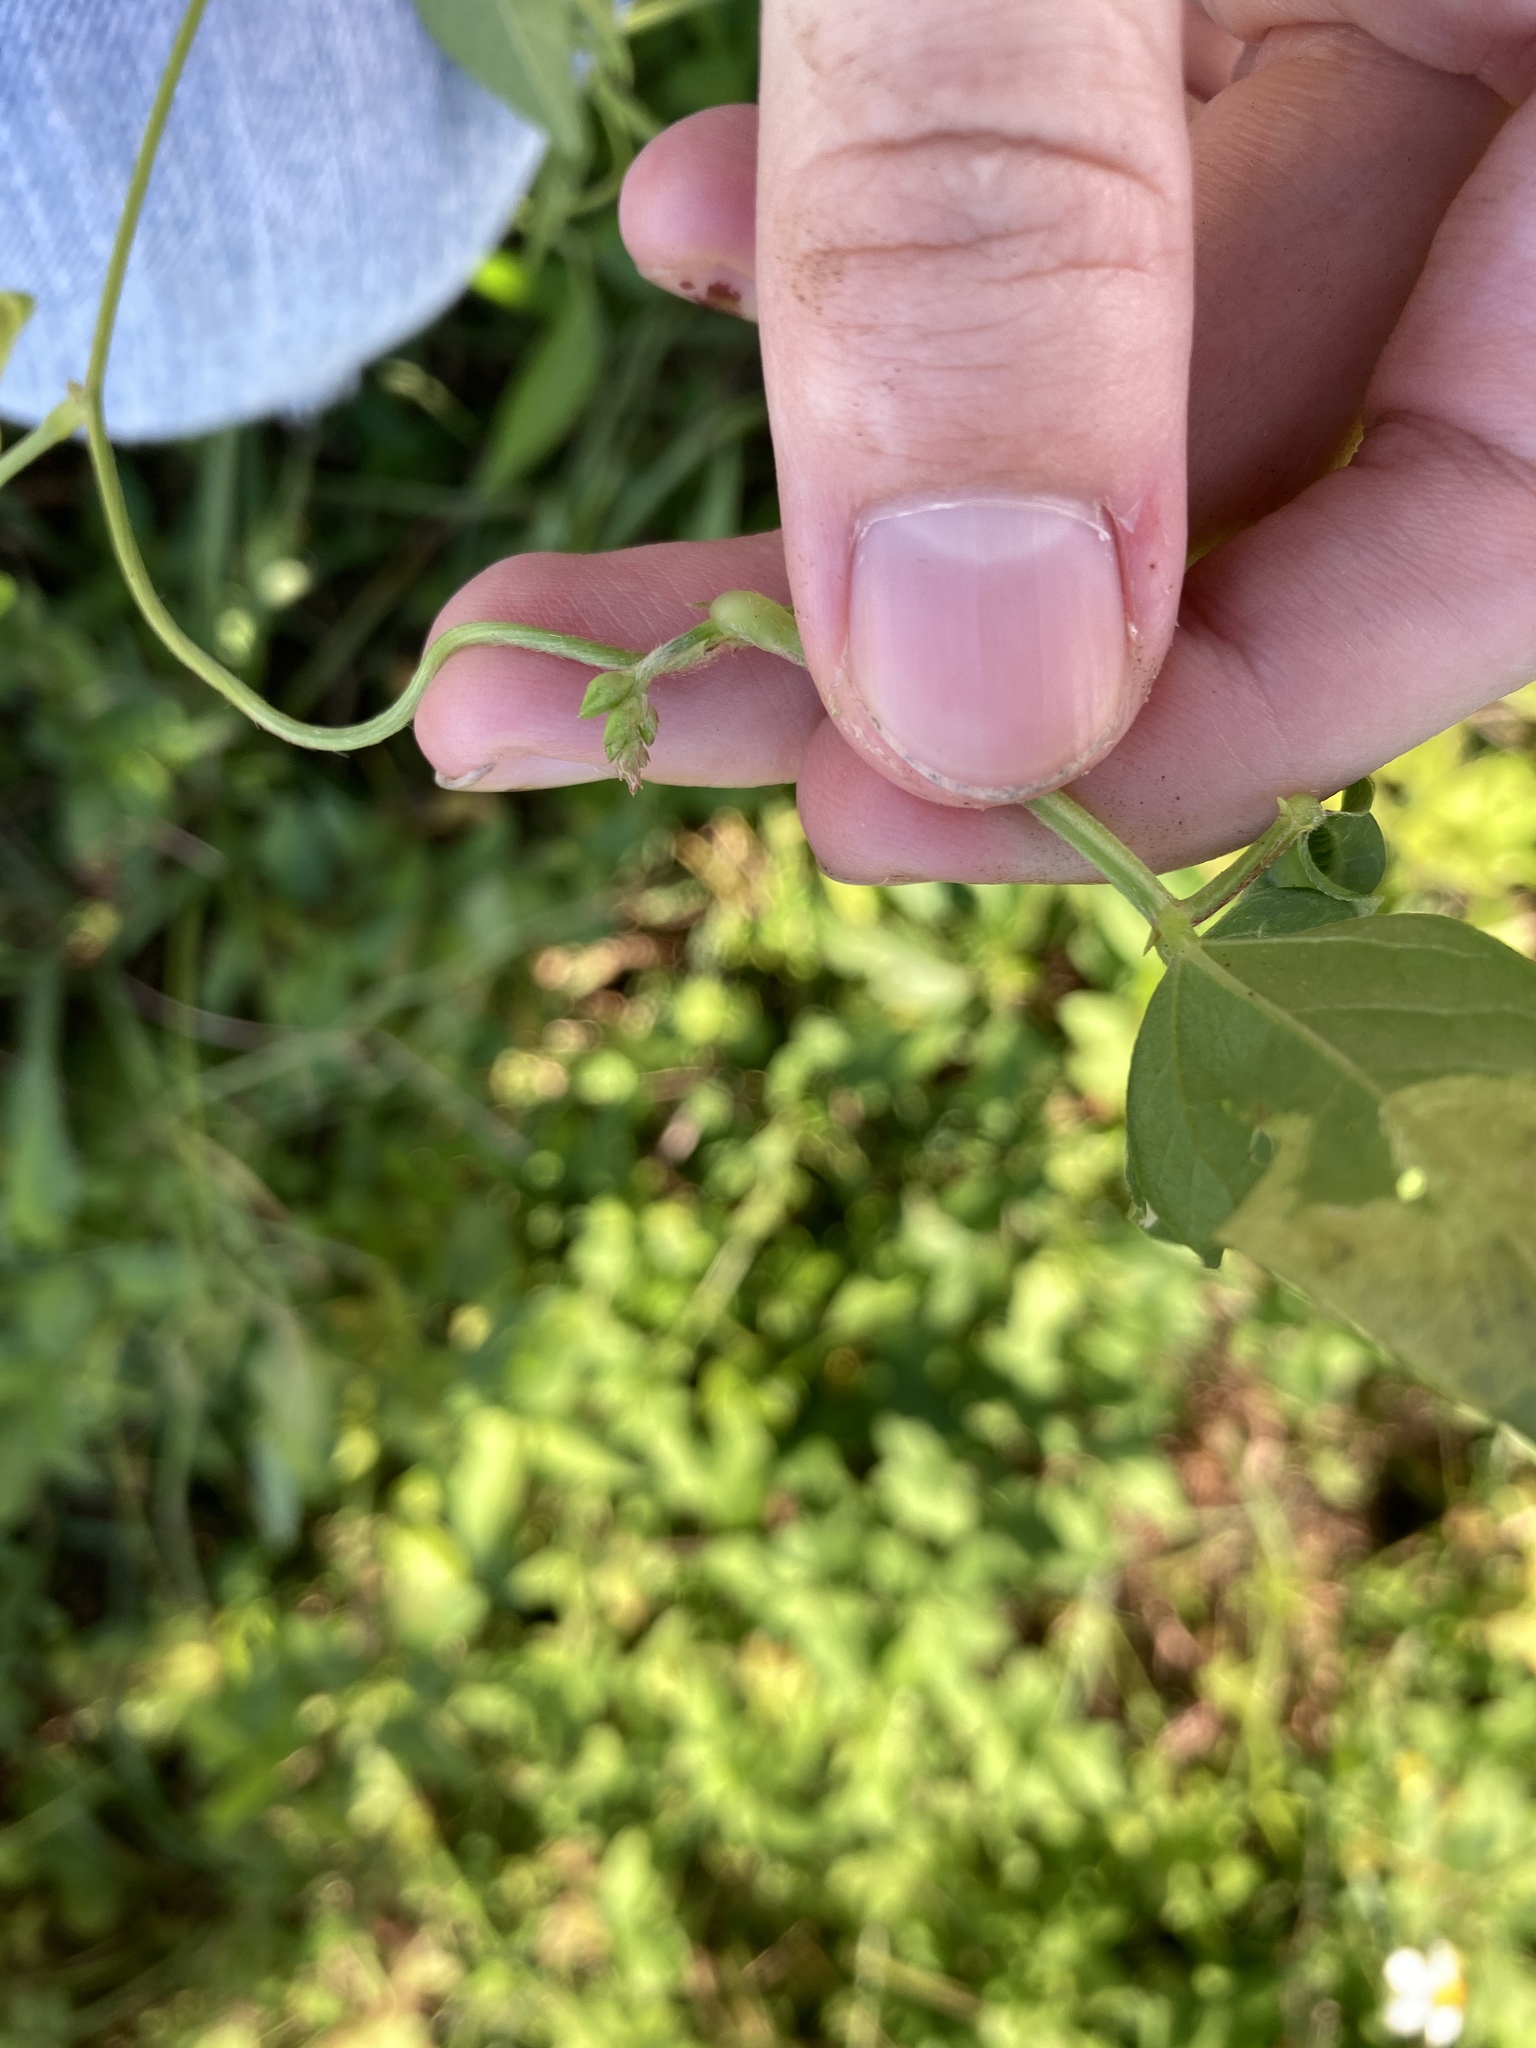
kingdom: Plantae
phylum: Tracheophyta
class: Magnoliopsida
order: Fabales
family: Fabaceae
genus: Vigna
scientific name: Vigna luteola
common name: Hairypod cowpea
